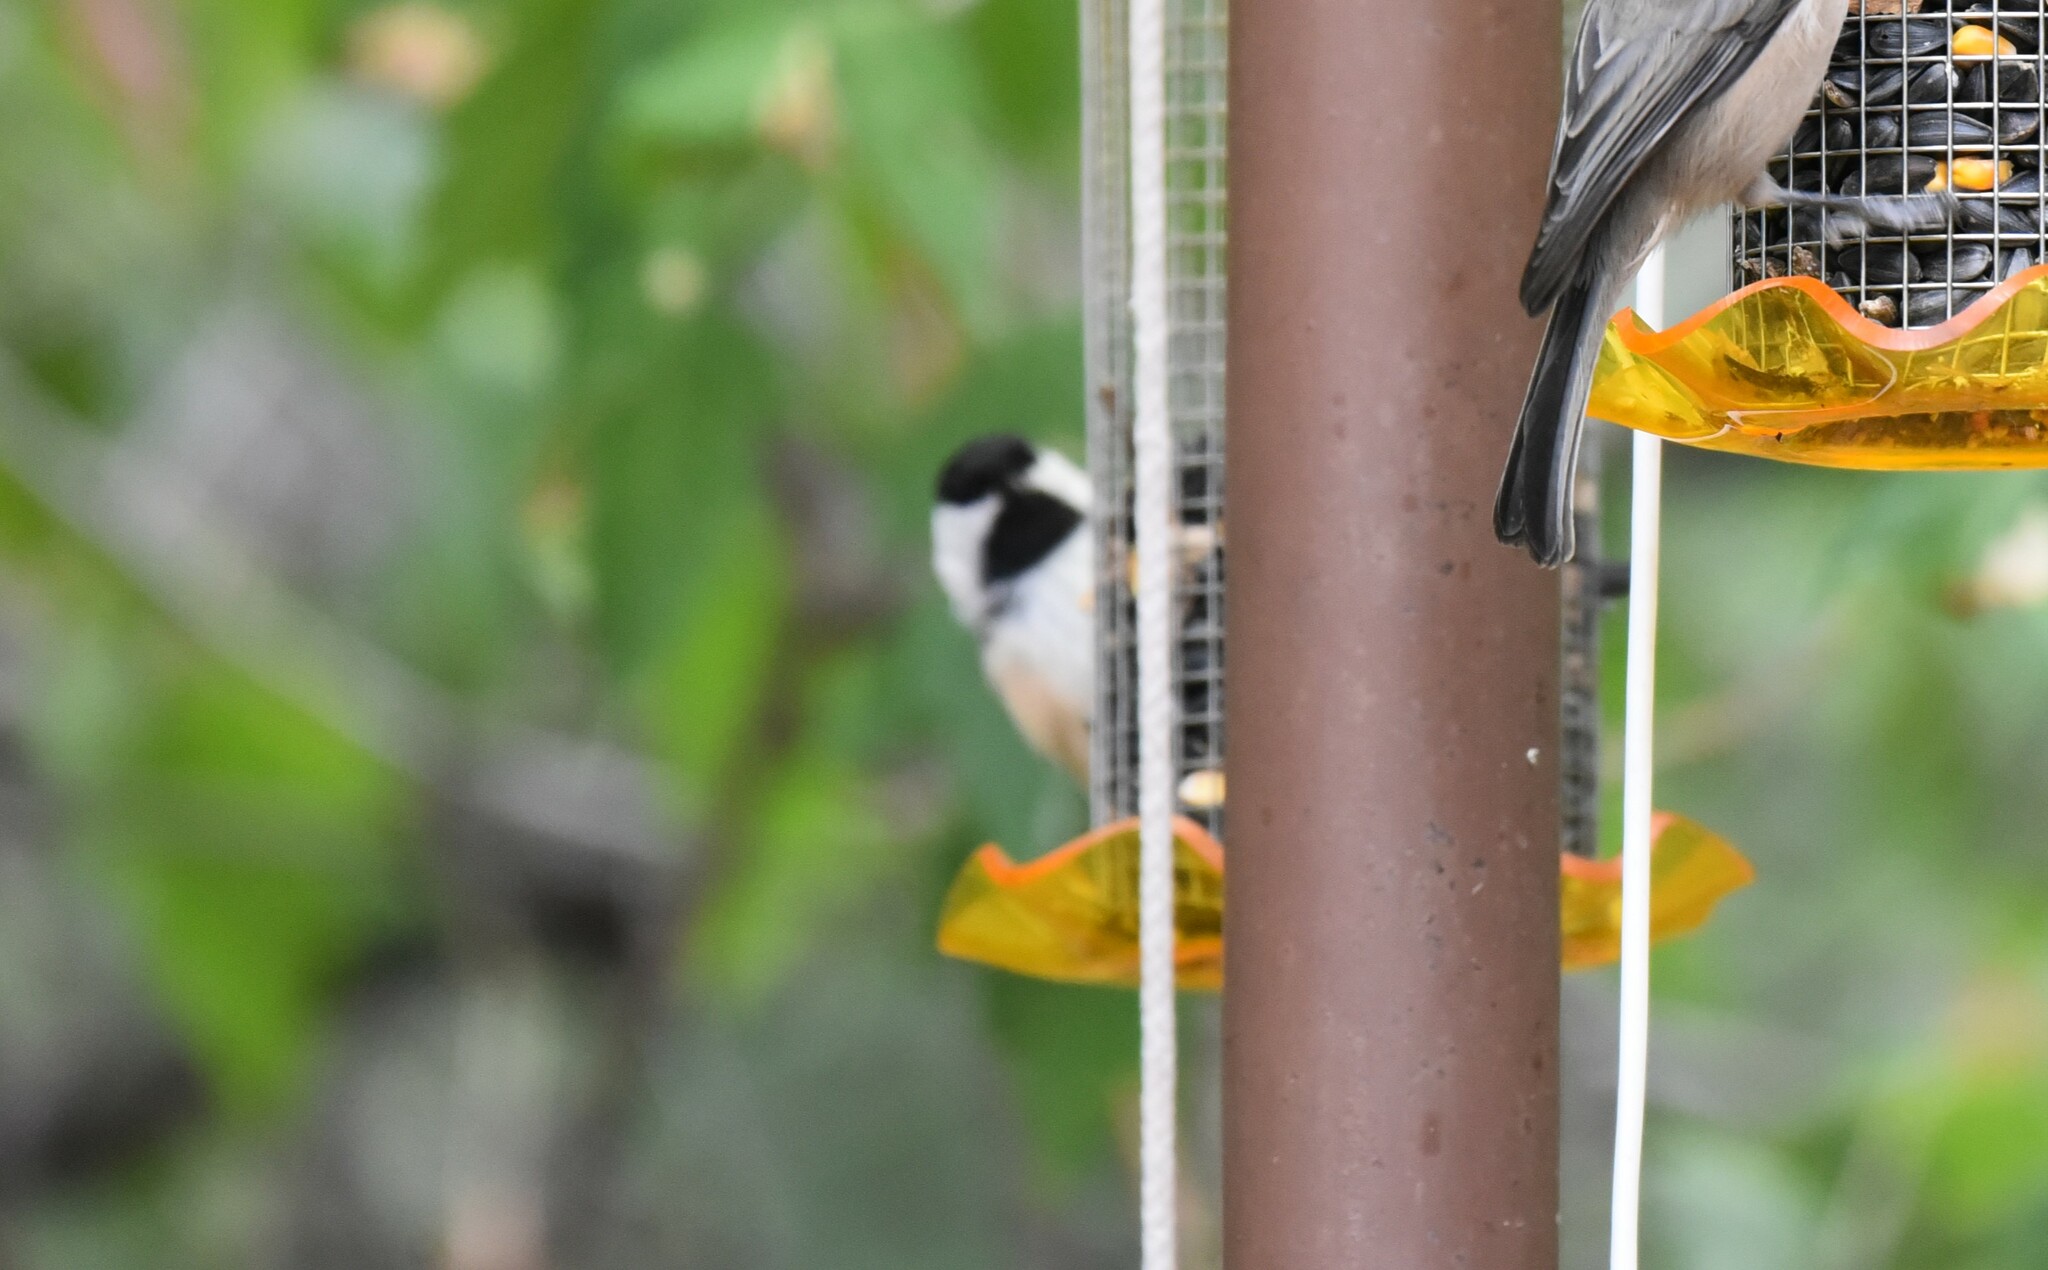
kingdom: Animalia
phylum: Chordata
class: Aves
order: Passeriformes
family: Paridae
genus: Poecile
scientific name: Poecile atricapillus
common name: Black-capped chickadee
